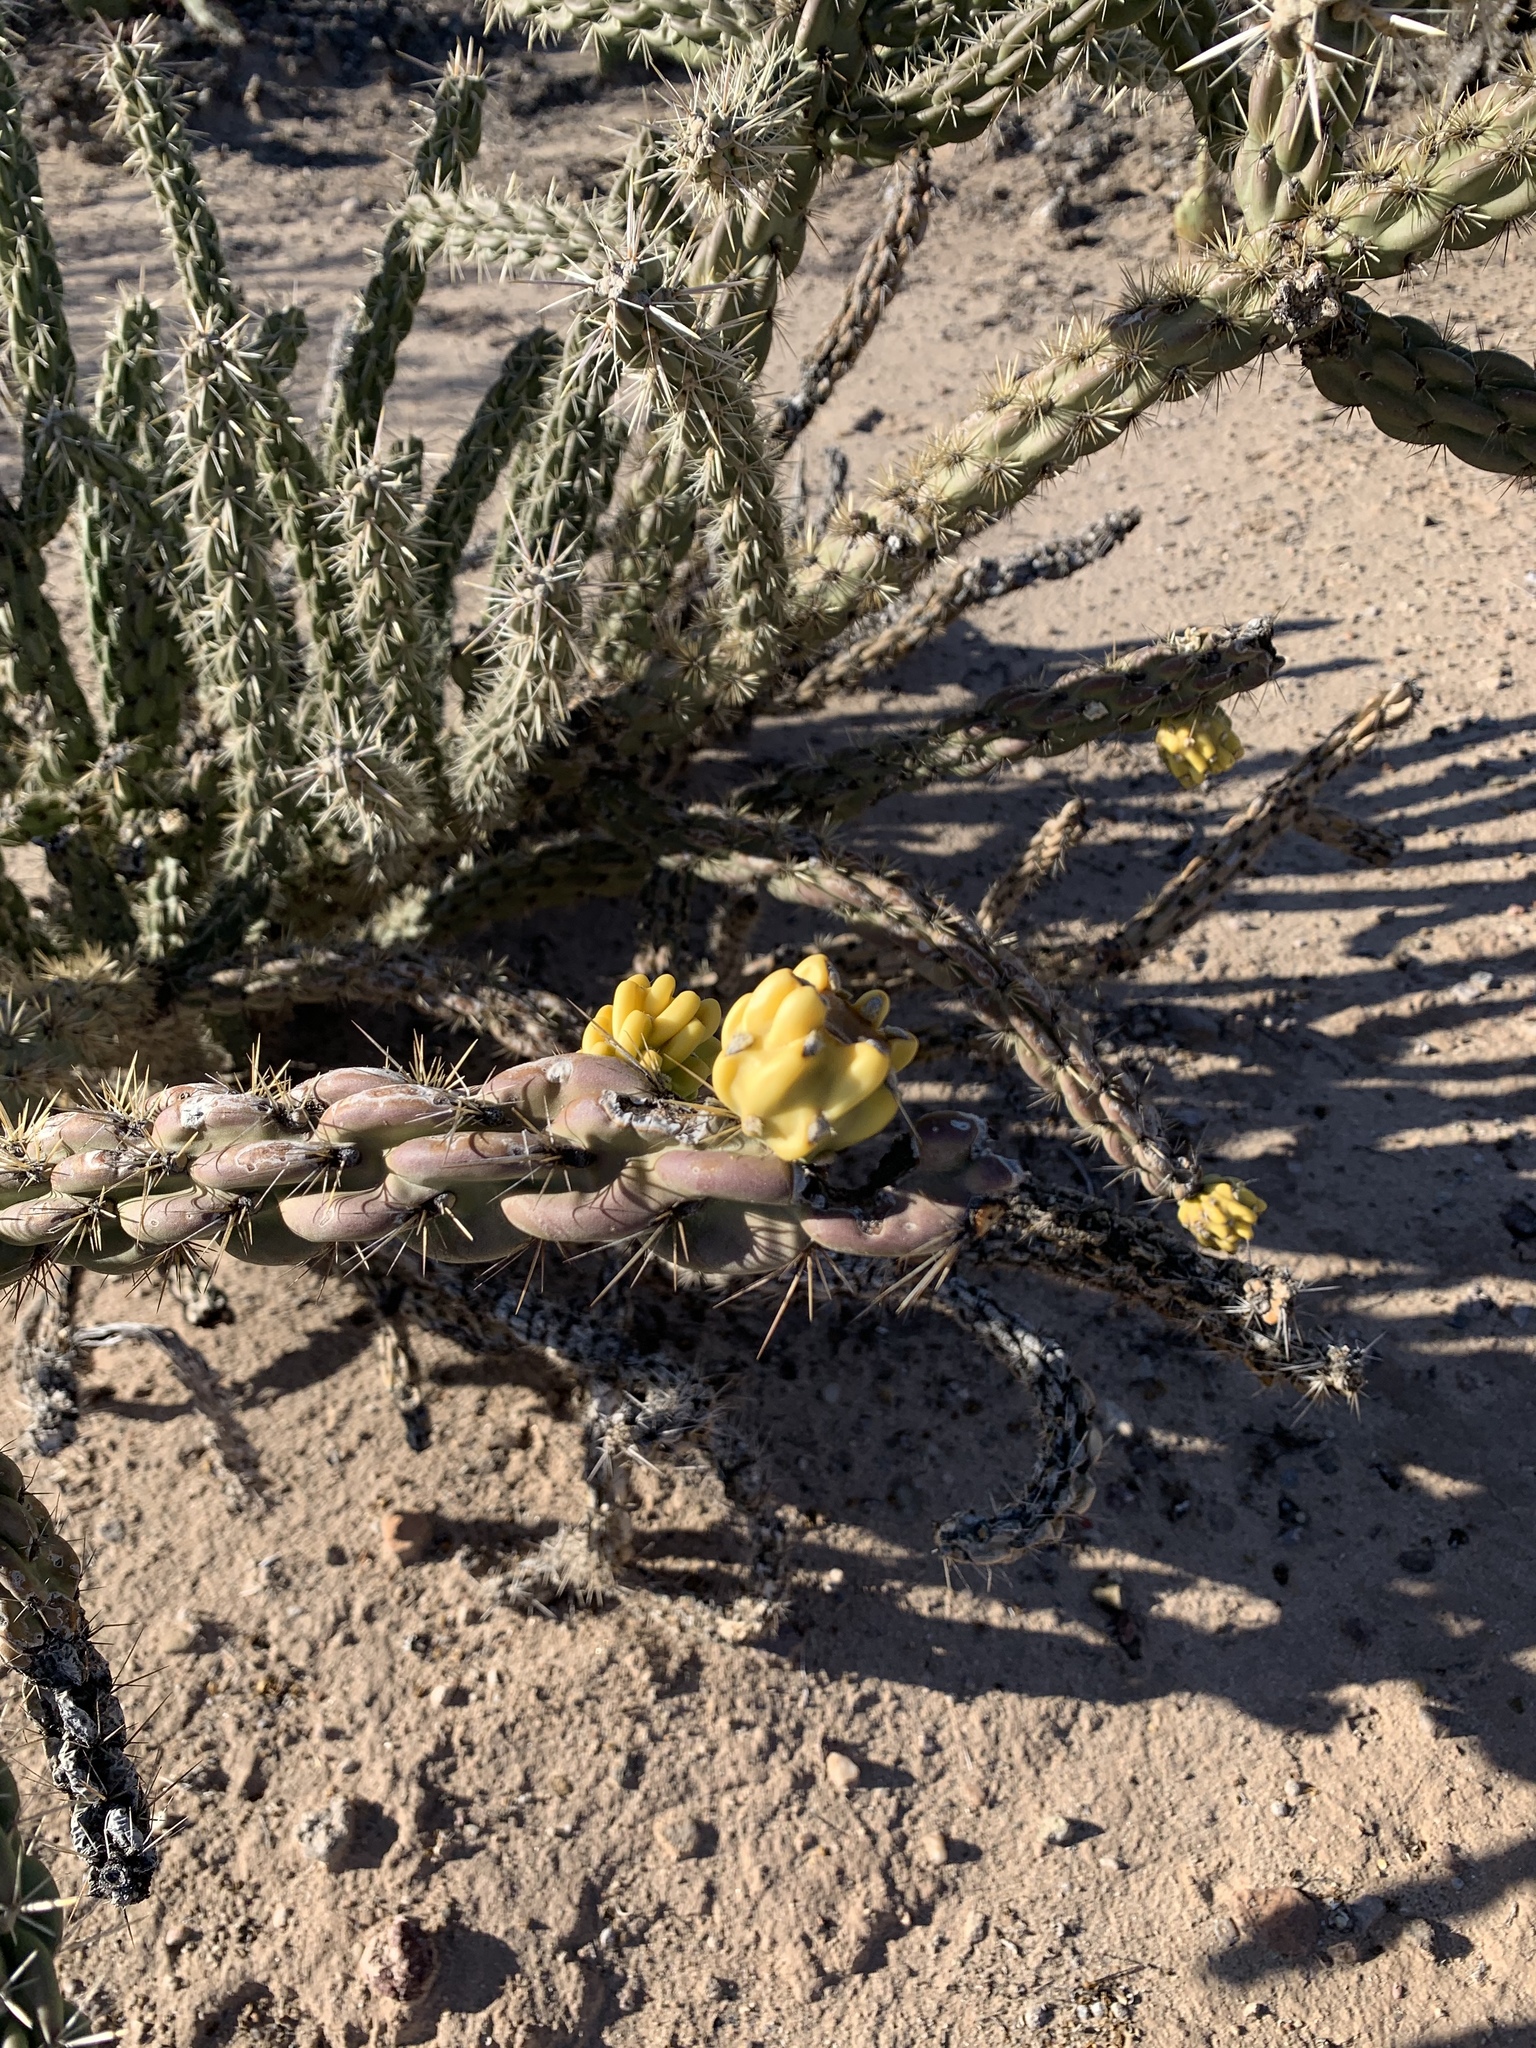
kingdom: Plantae
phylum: Tracheophyta
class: Magnoliopsida
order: Caryophyllales
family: Cactaceae
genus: Cylindropuntia
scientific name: Cylindropuntia imbricata
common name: Candelabrum cactus
